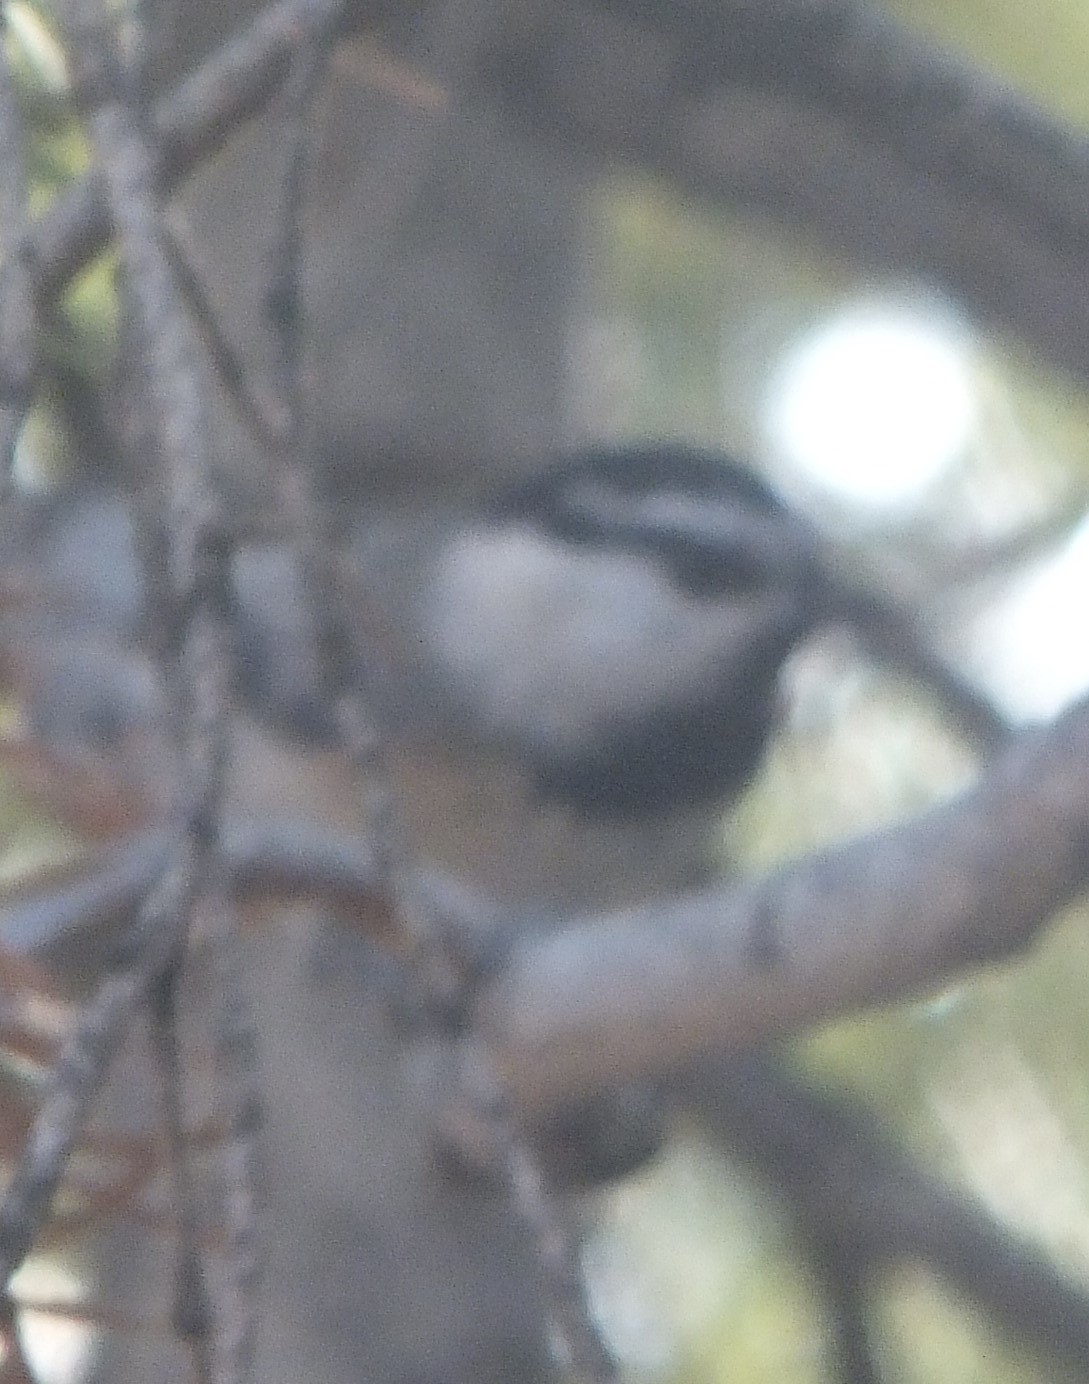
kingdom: Animalia
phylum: Chordata
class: Aves
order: Passeriformes
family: Paridae
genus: Poecile
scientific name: Poecile gambeli
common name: Mountain chickadee
